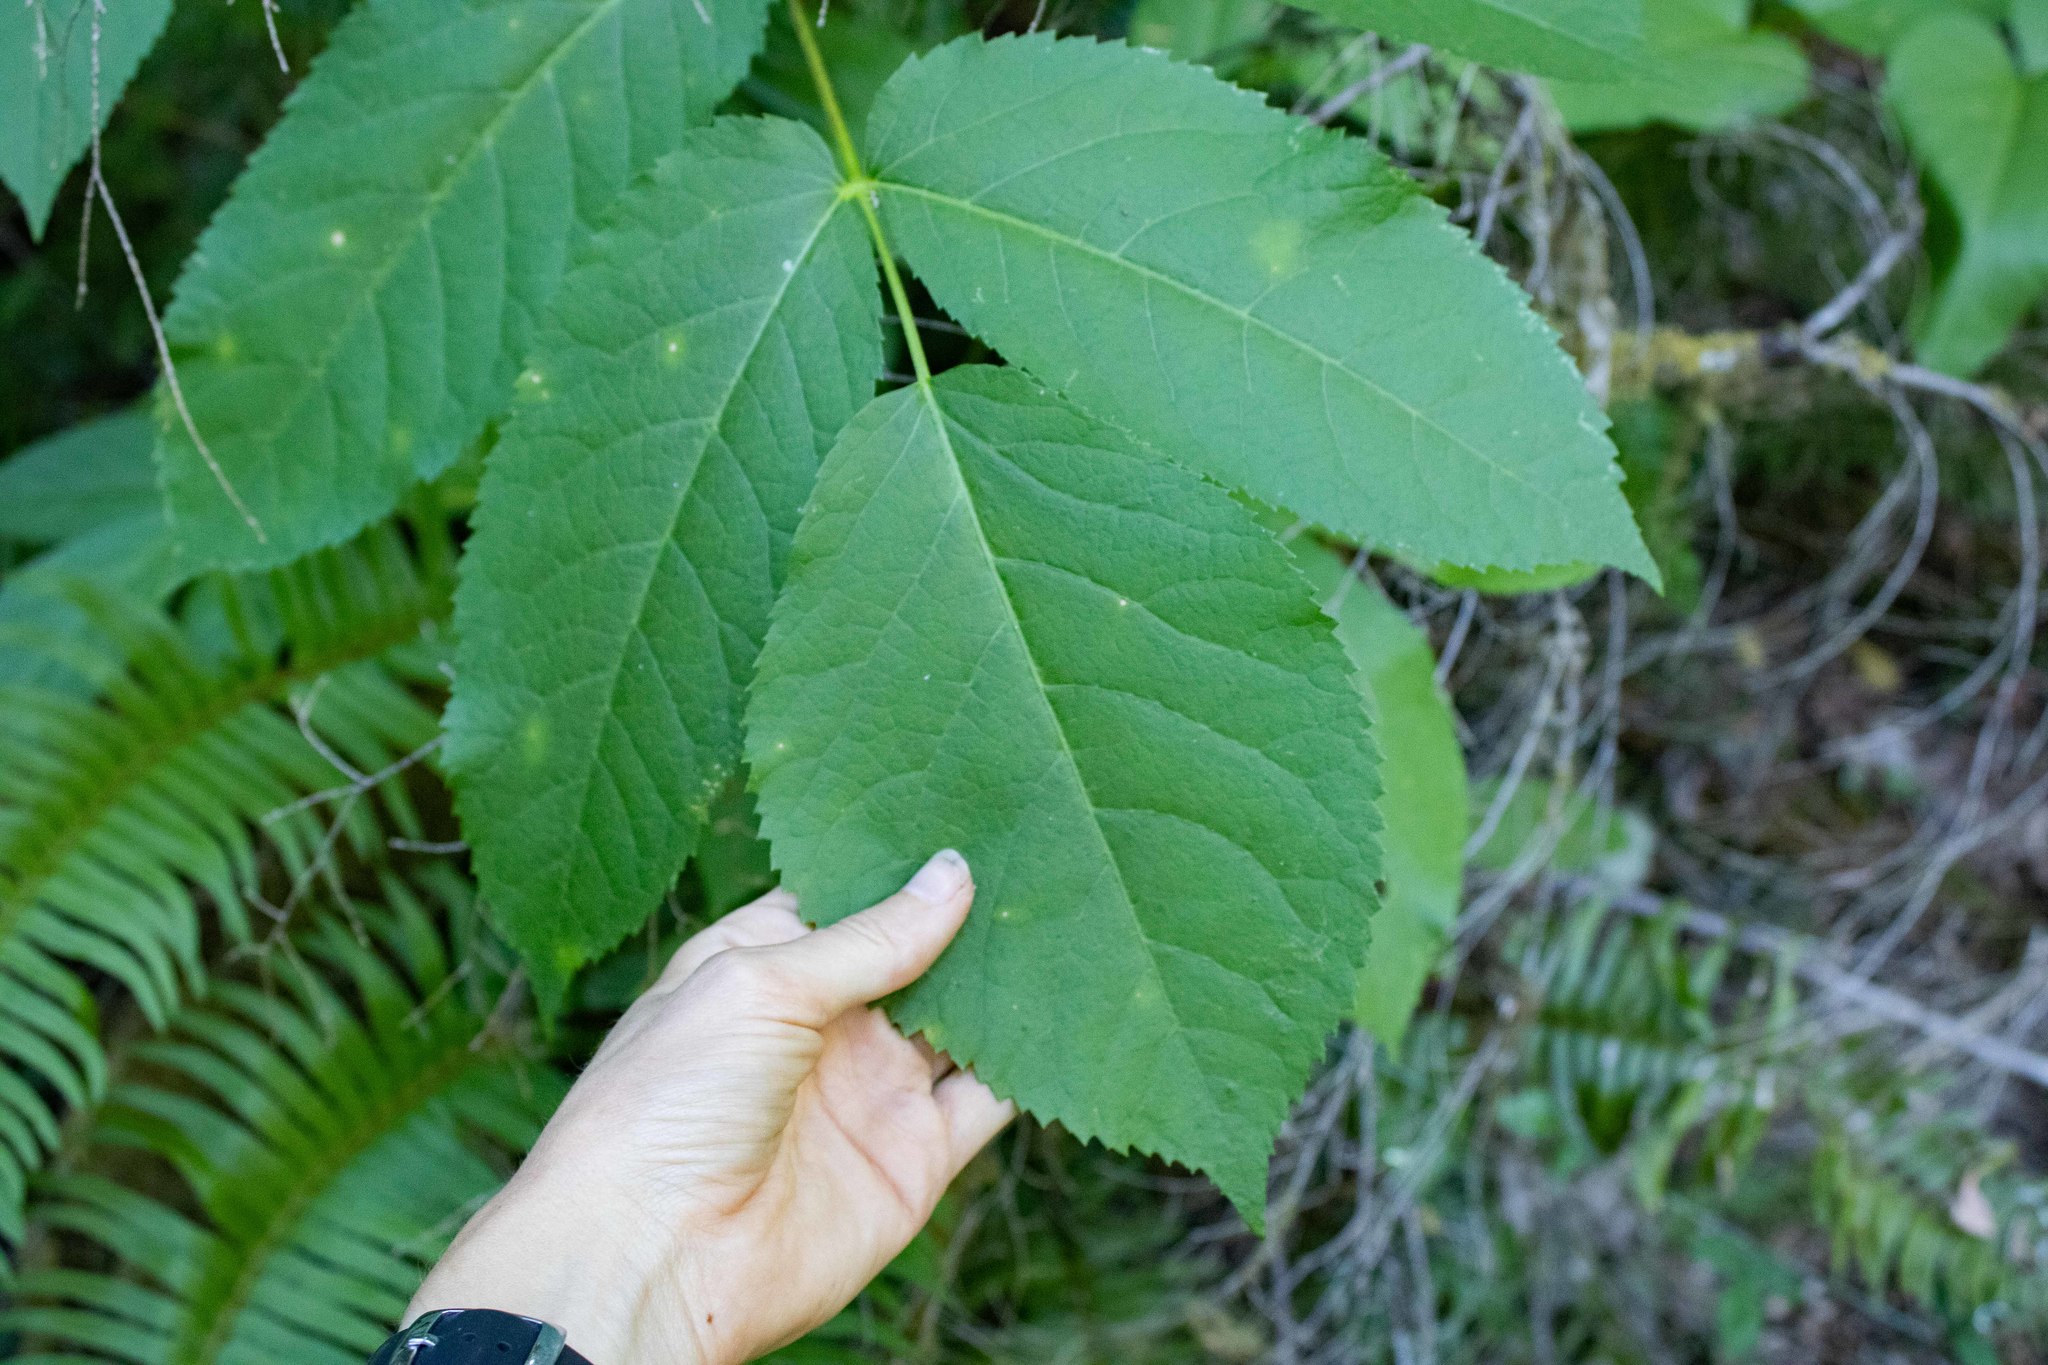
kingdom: Plantae
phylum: Tracheophyta
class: Magnoliopsida
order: Apiales
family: Araliaceae
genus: Aralia
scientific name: Aralia californica
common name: California-ginseng
